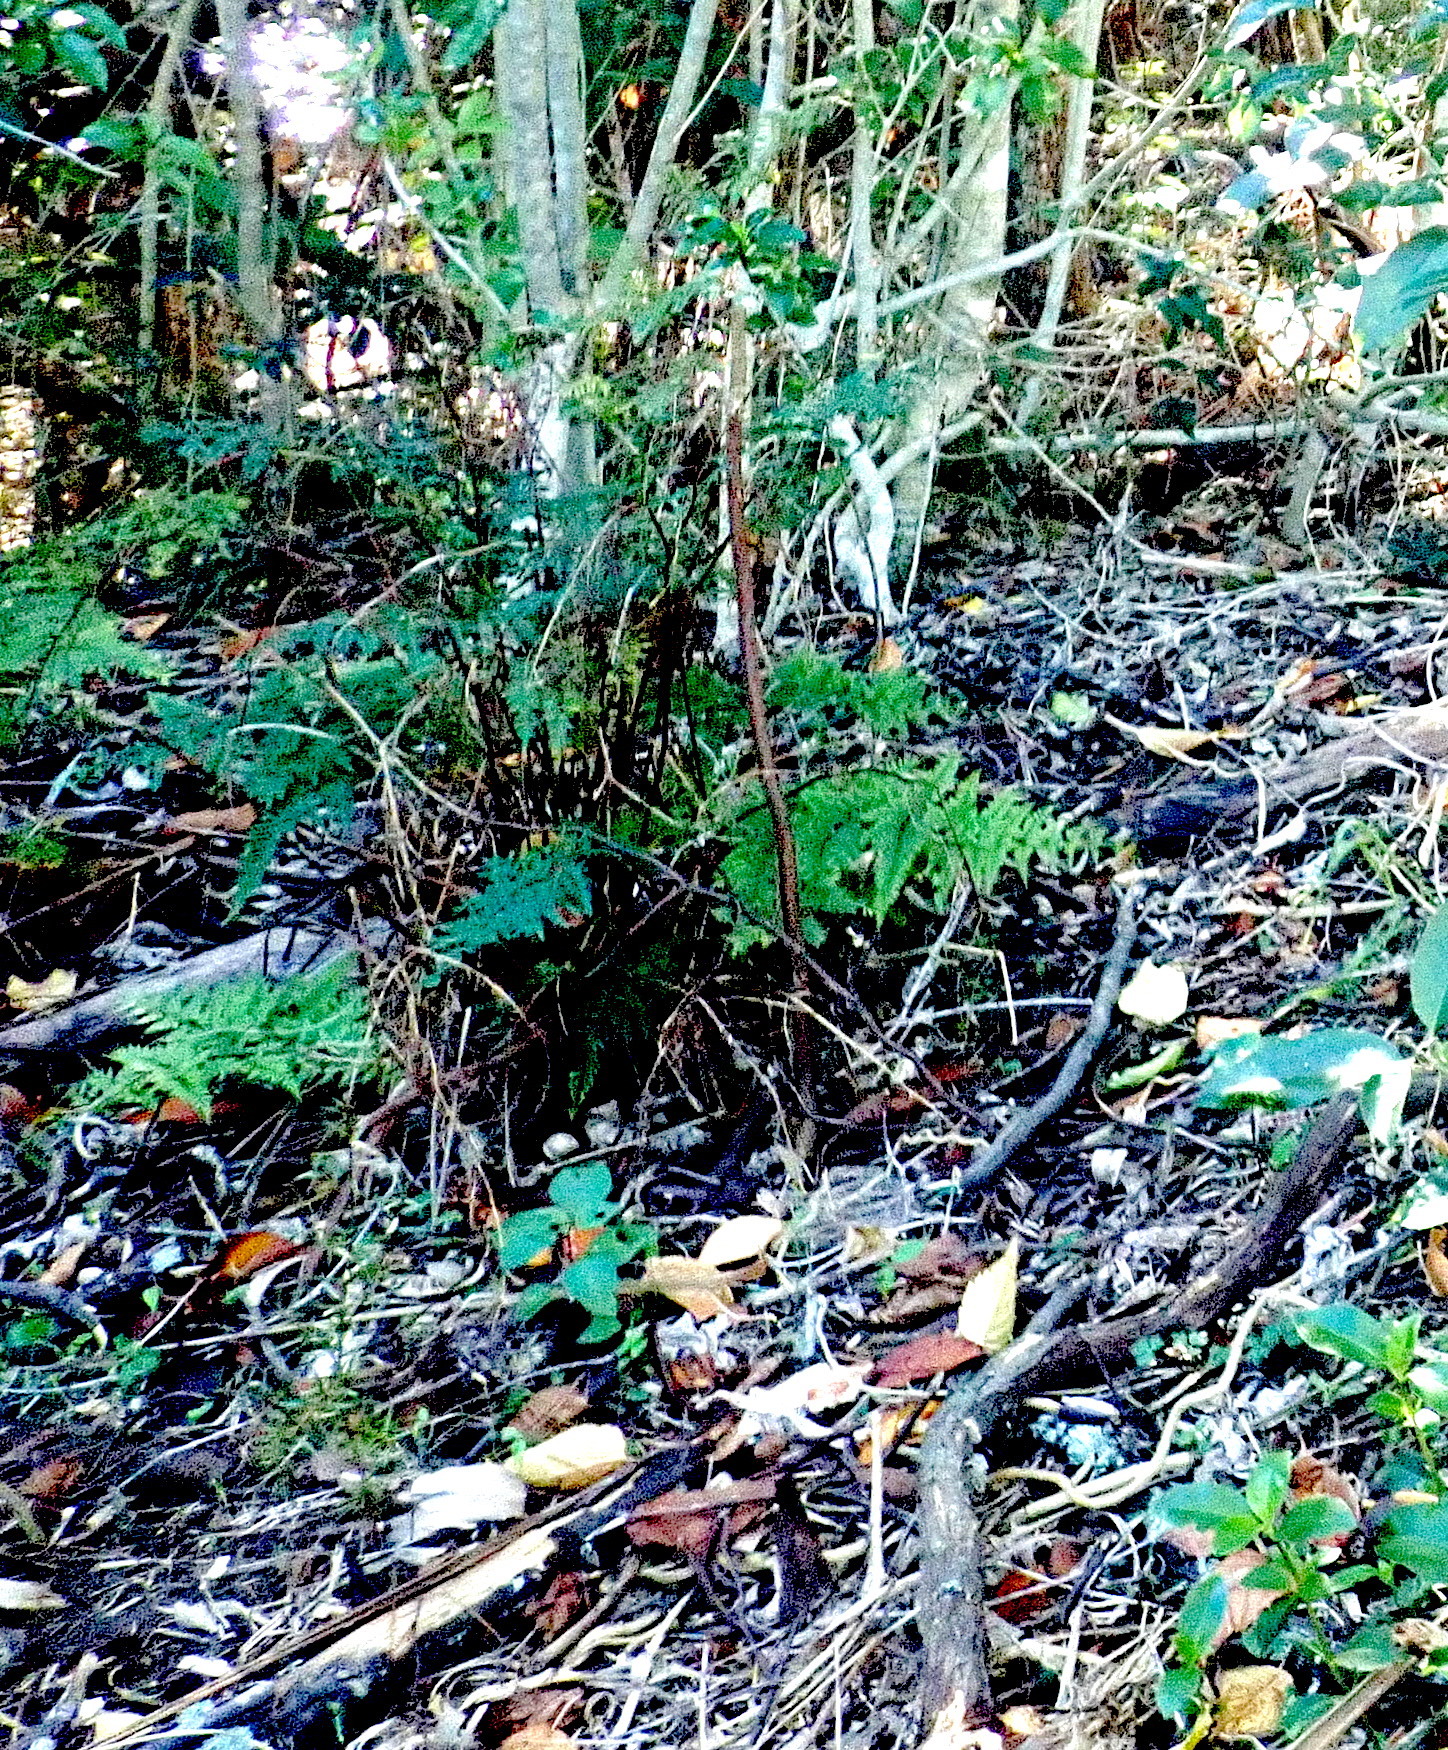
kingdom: Plantae
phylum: Tracheophyta
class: Polypodiopsida
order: Polypodiales
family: Pteridaceae
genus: Pteris
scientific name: Pteris tremula
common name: Australian brake
